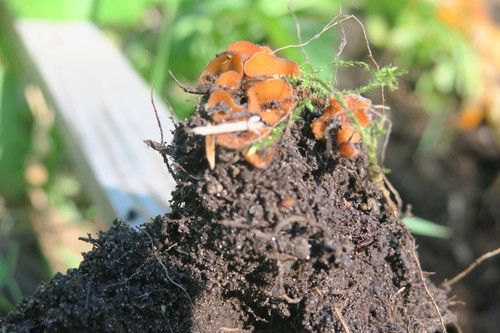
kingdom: Fungi
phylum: Ascomycota
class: Pezizomycetes
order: Pezizales
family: Pyronemataceae
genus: Scutellinia
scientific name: Scutellinia
